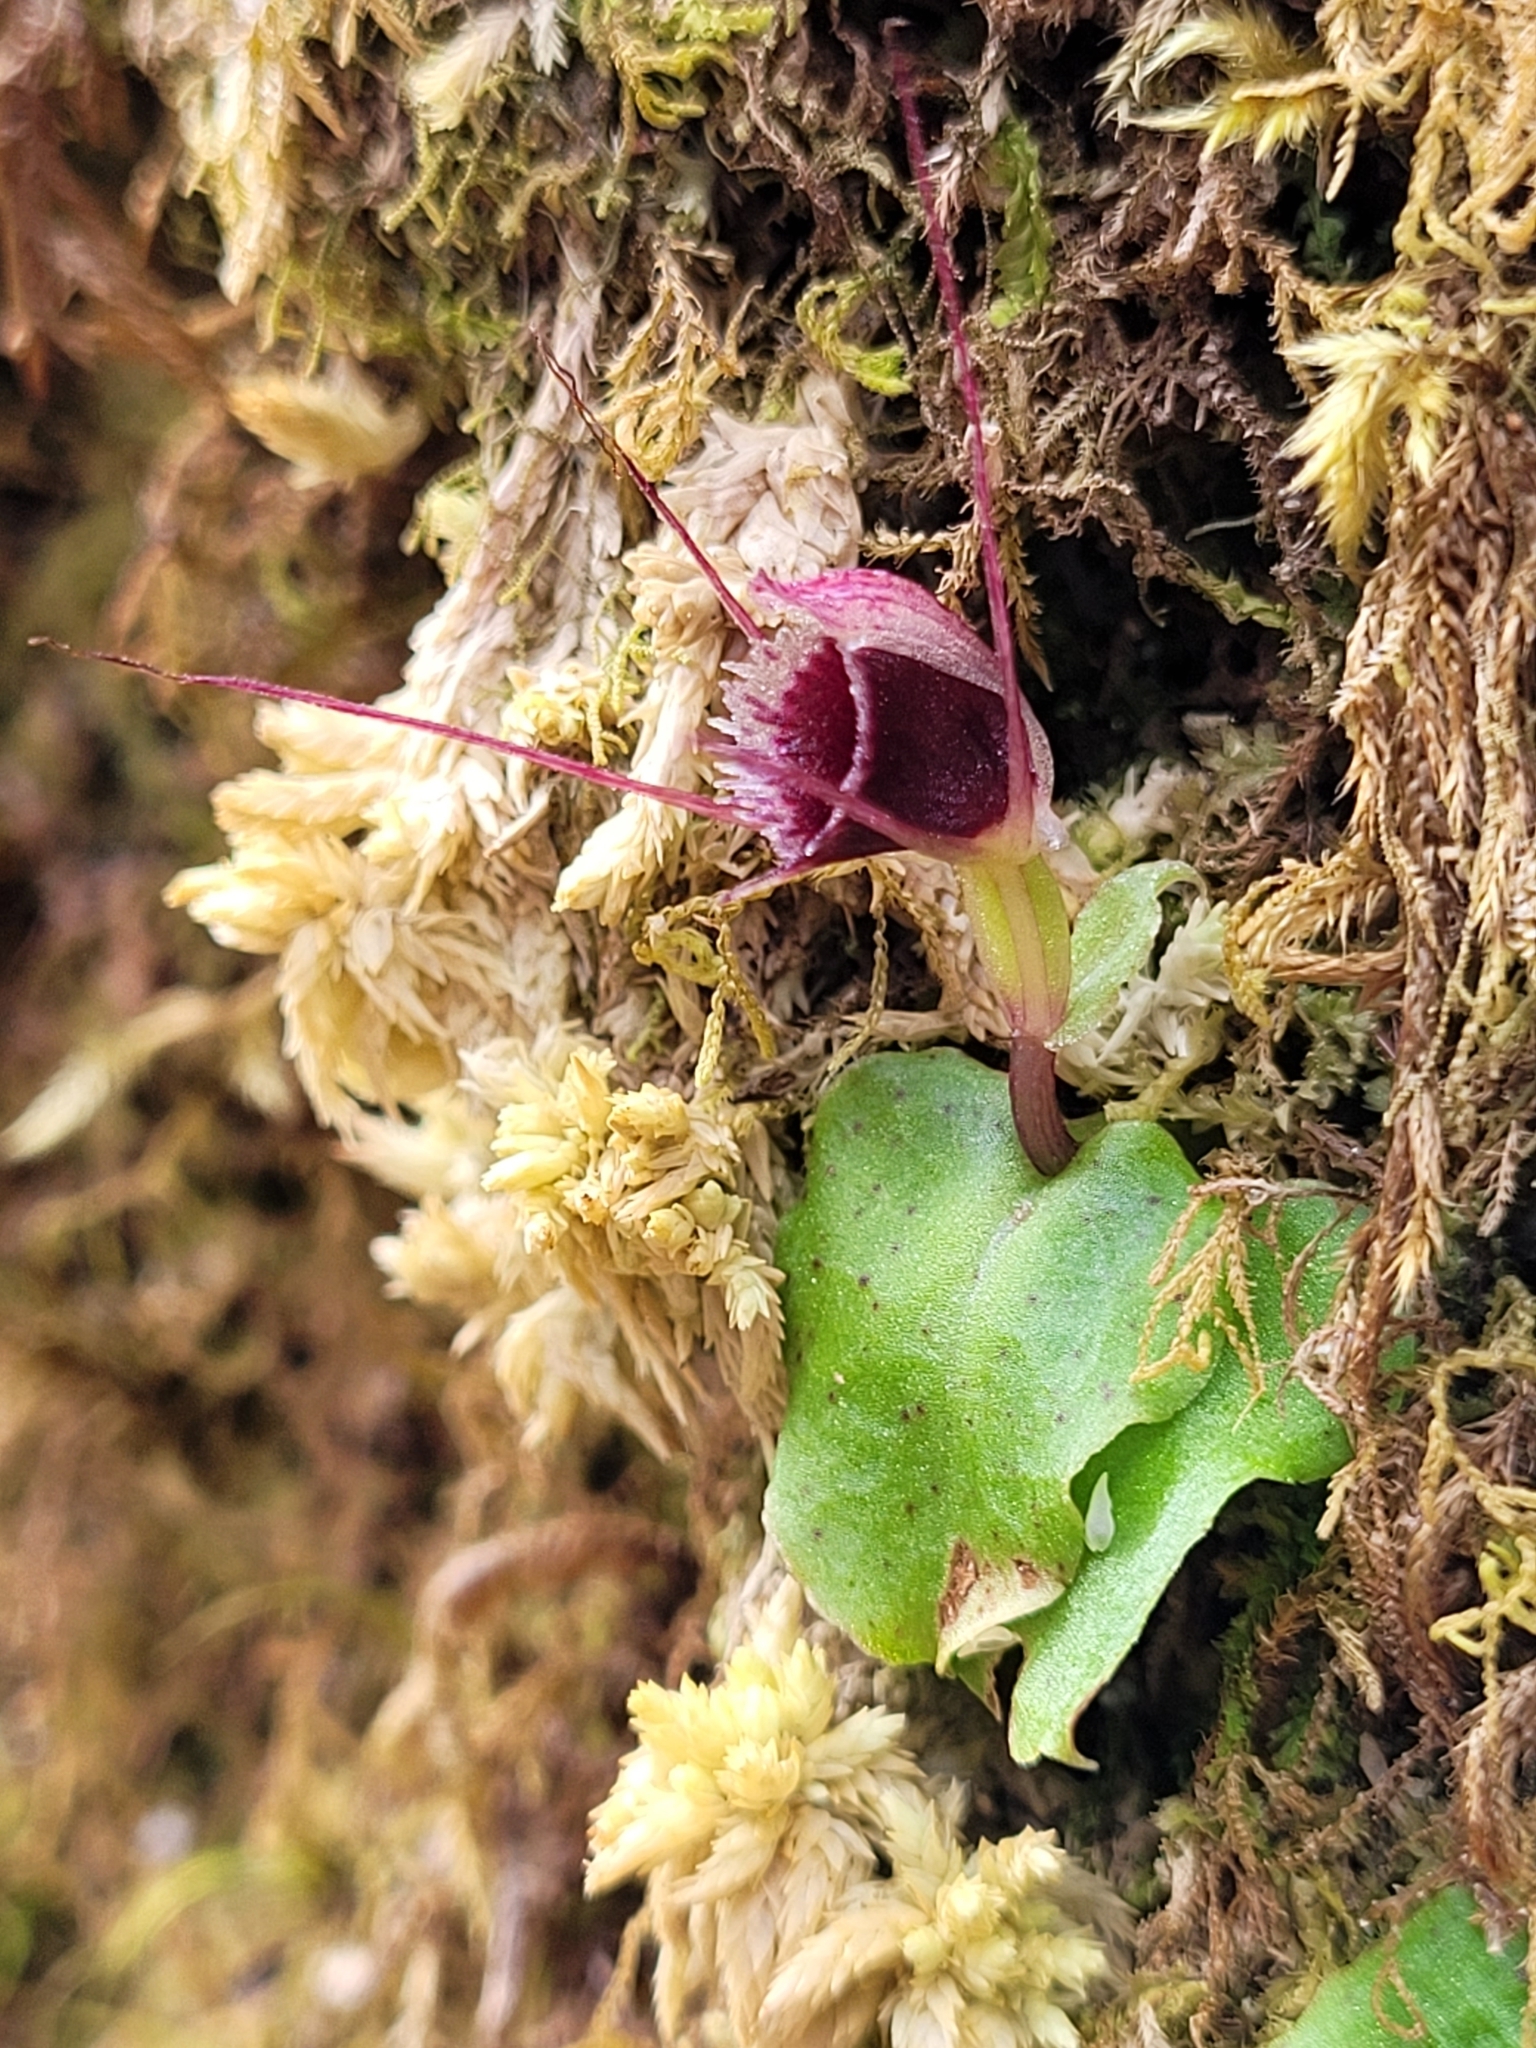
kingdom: Plantae
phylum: Tracheophyta
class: Liliopsida
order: Asparagales
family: Orchidaceae
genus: Corybas
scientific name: Corybas oblongus
